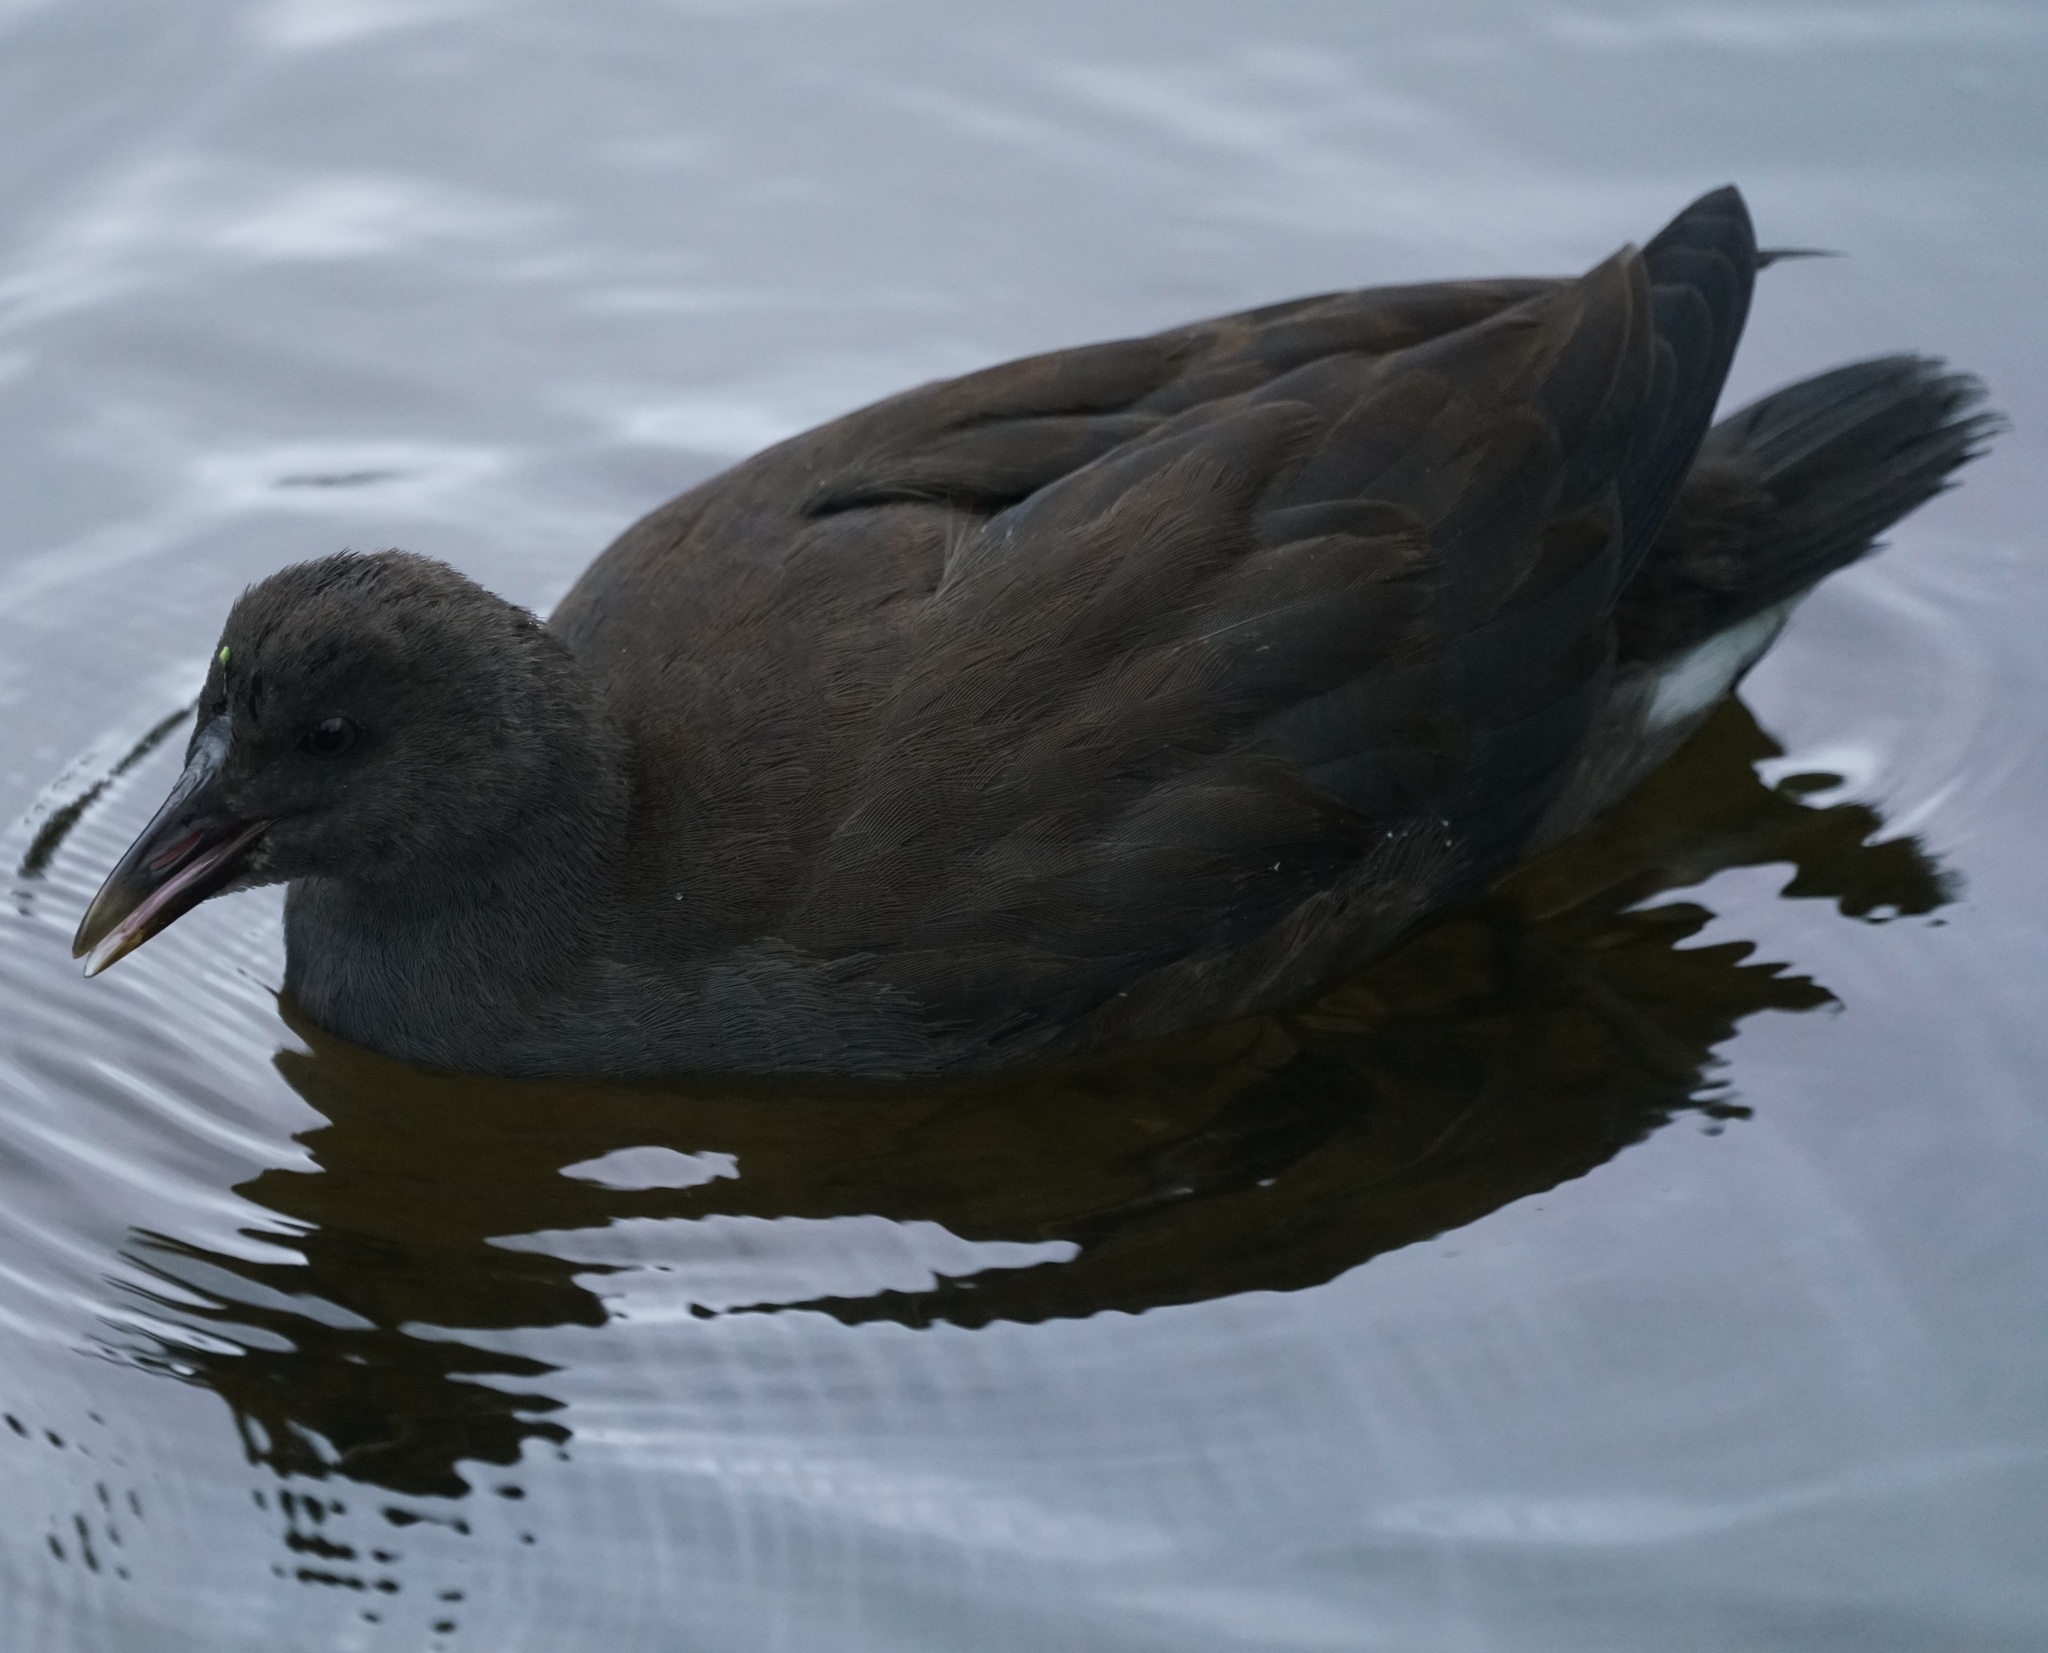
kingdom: Animalia
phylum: Chordata
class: Aves
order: Gruiformes
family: Rallidae
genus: Gallinula
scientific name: Gallinula tenebrosa
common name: Dusky moorhen
